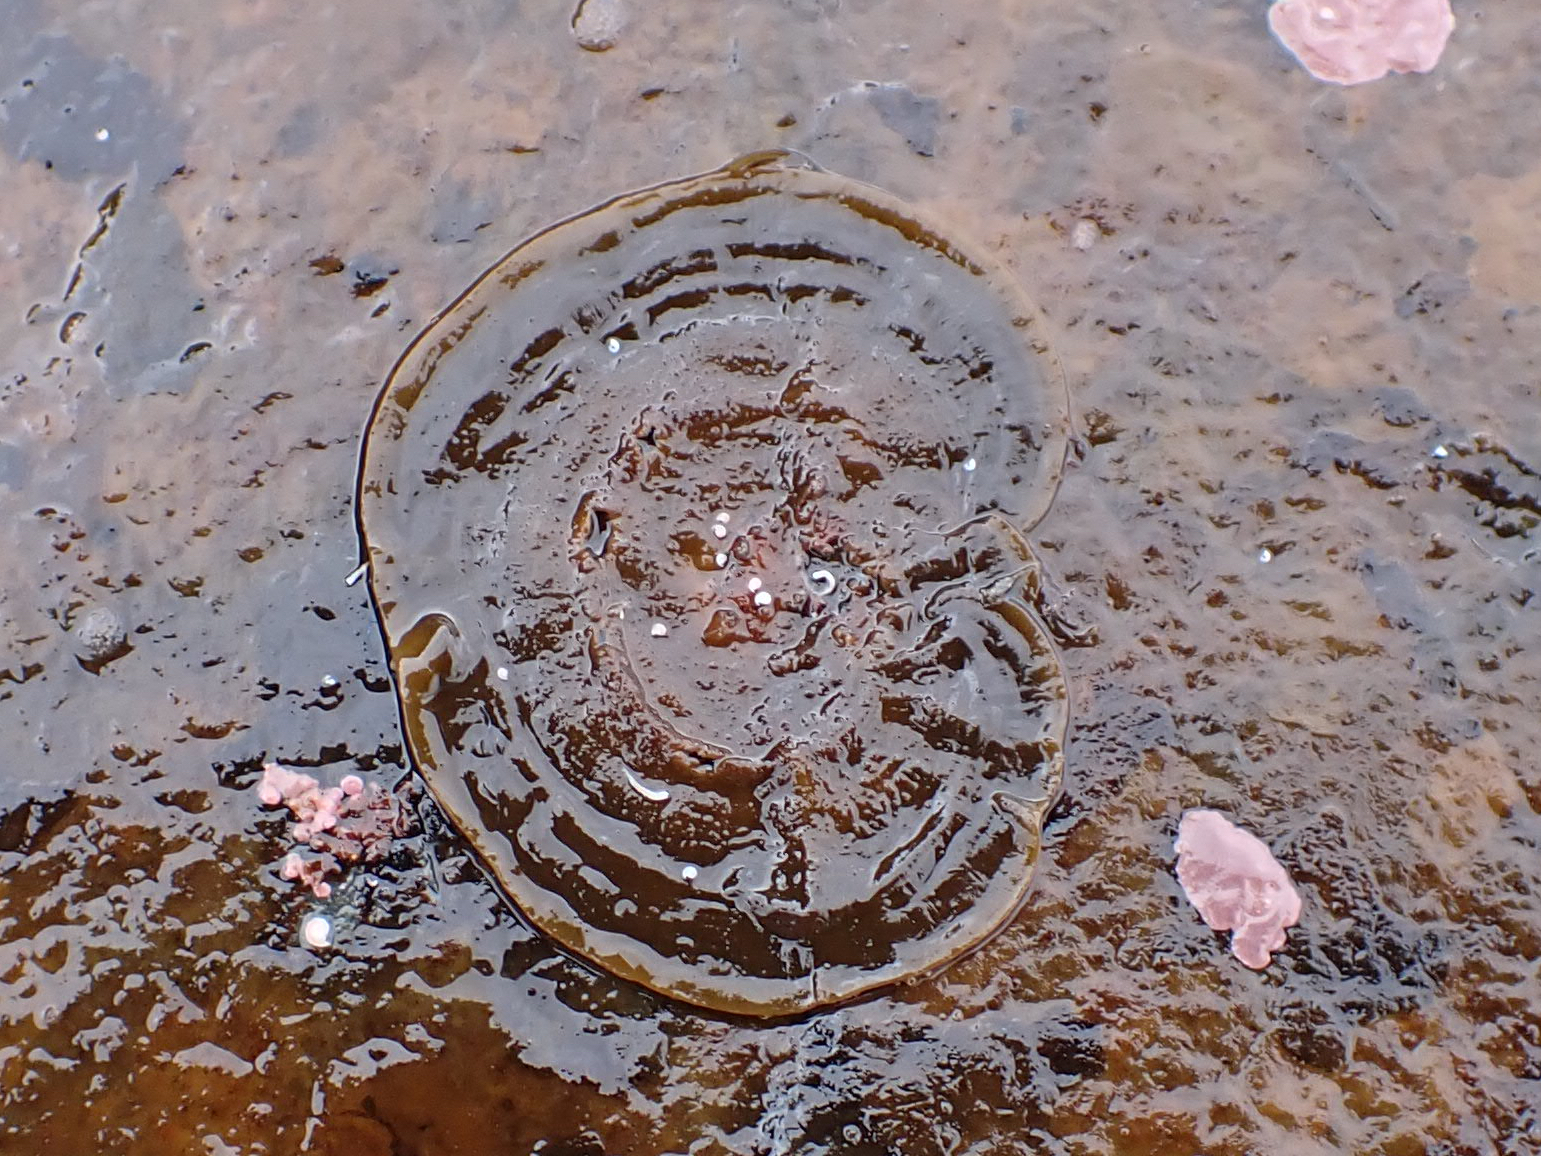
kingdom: Chromista
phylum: Ochrophyta
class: Phaeophyceae
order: Ralfsiales
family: Ralfsiaceae
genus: Ralfsia
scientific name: Ralfsia fungiformis
